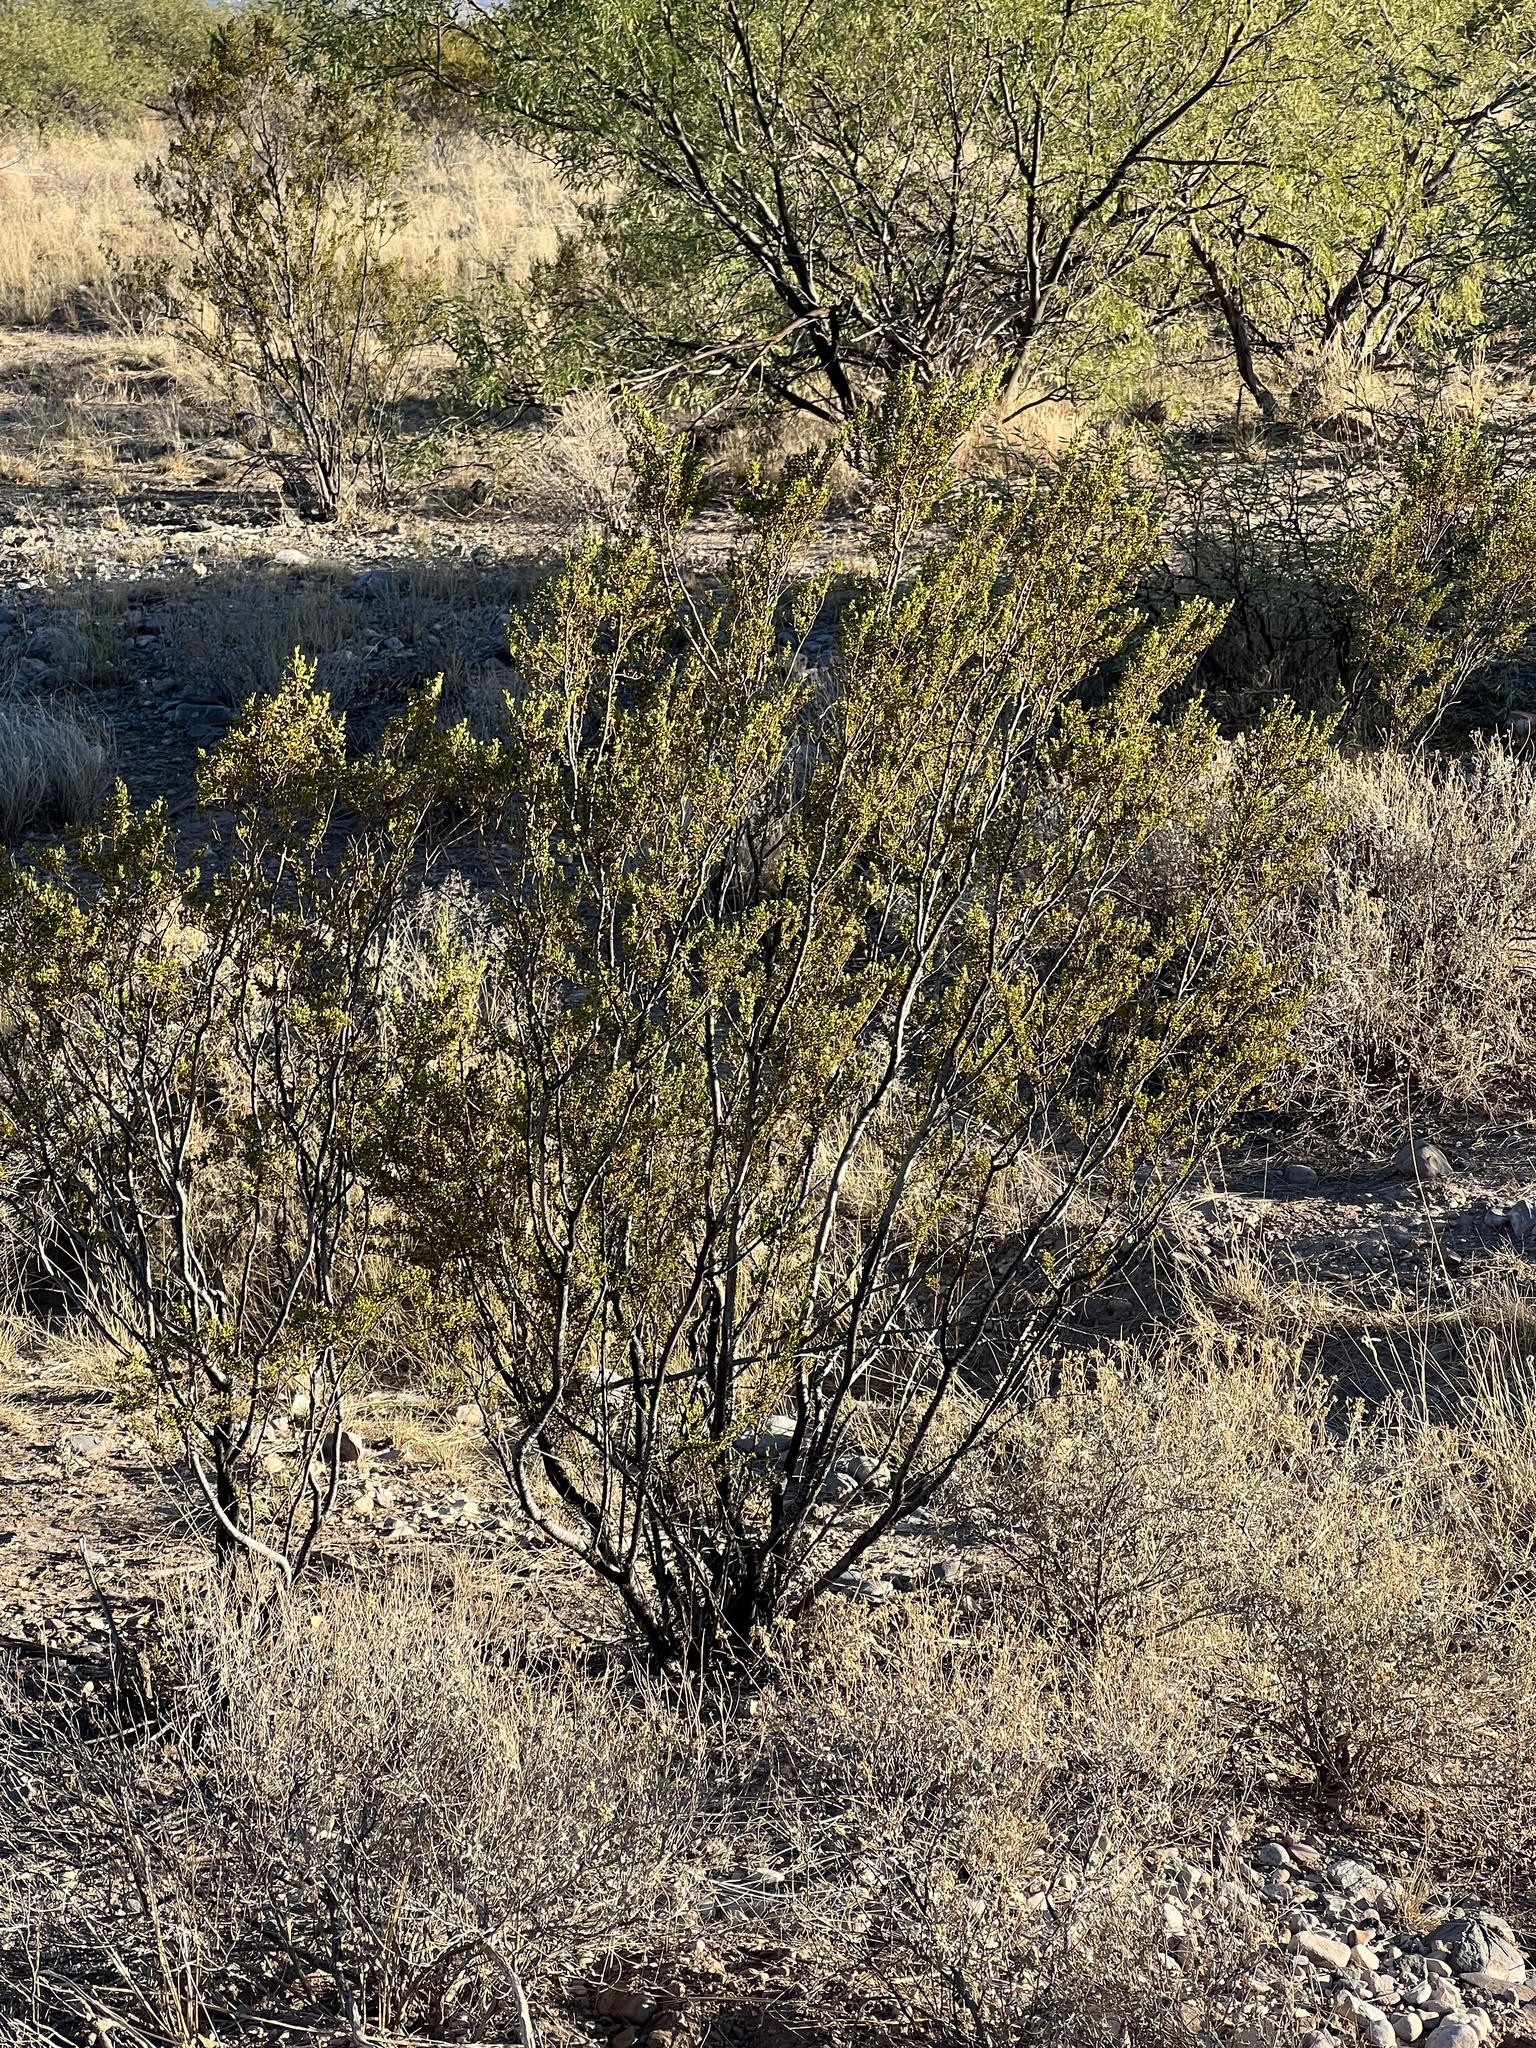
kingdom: Plantae
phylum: Tracheophyta
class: Magnoliopsida
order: Zygophyllales
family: Zygophyllaceae
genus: Larrea
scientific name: Larrea tridentata
